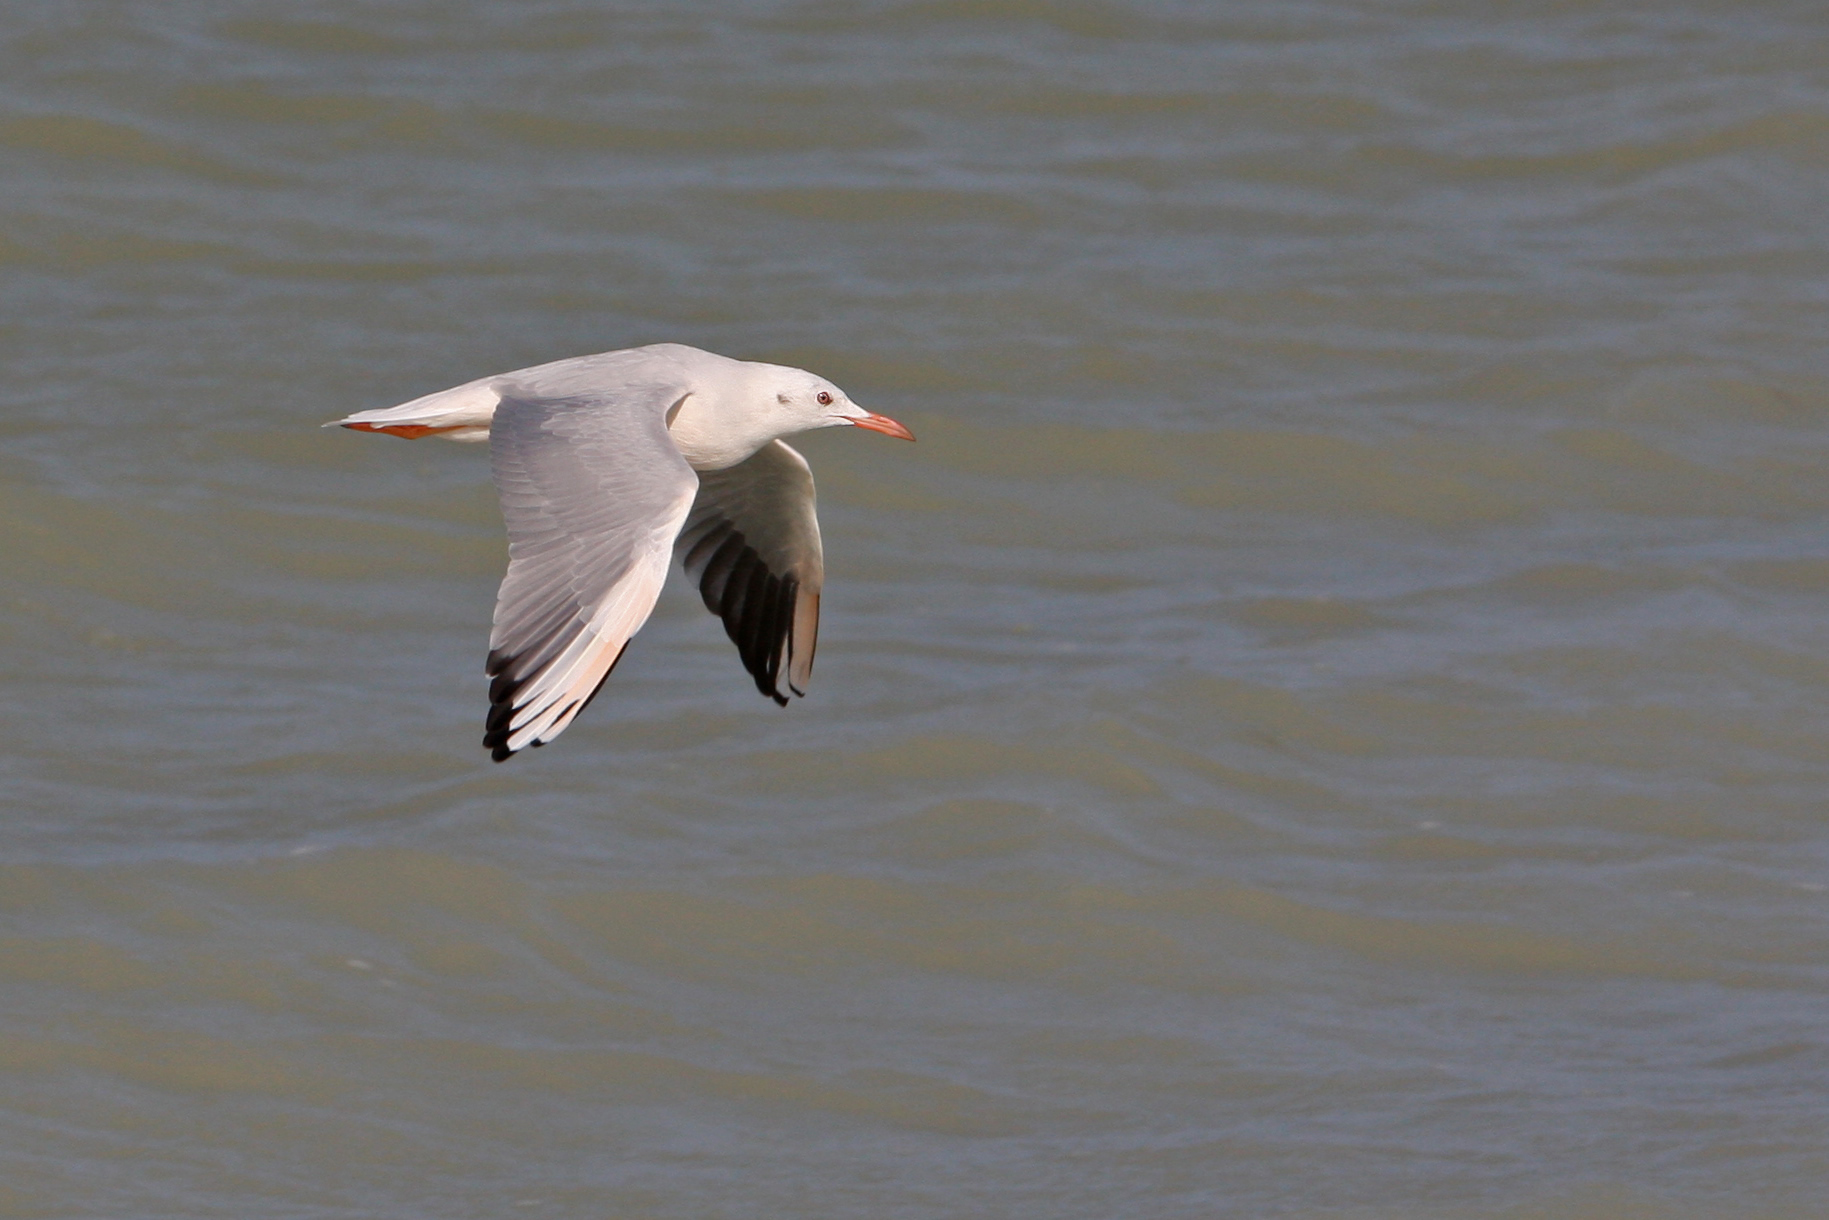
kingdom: Animalia
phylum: Chordata
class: Aves
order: Charadriiformes
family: Laridae
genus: Chroicocephalus
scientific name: Chroicocephalus genei
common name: Slender-billed gull
